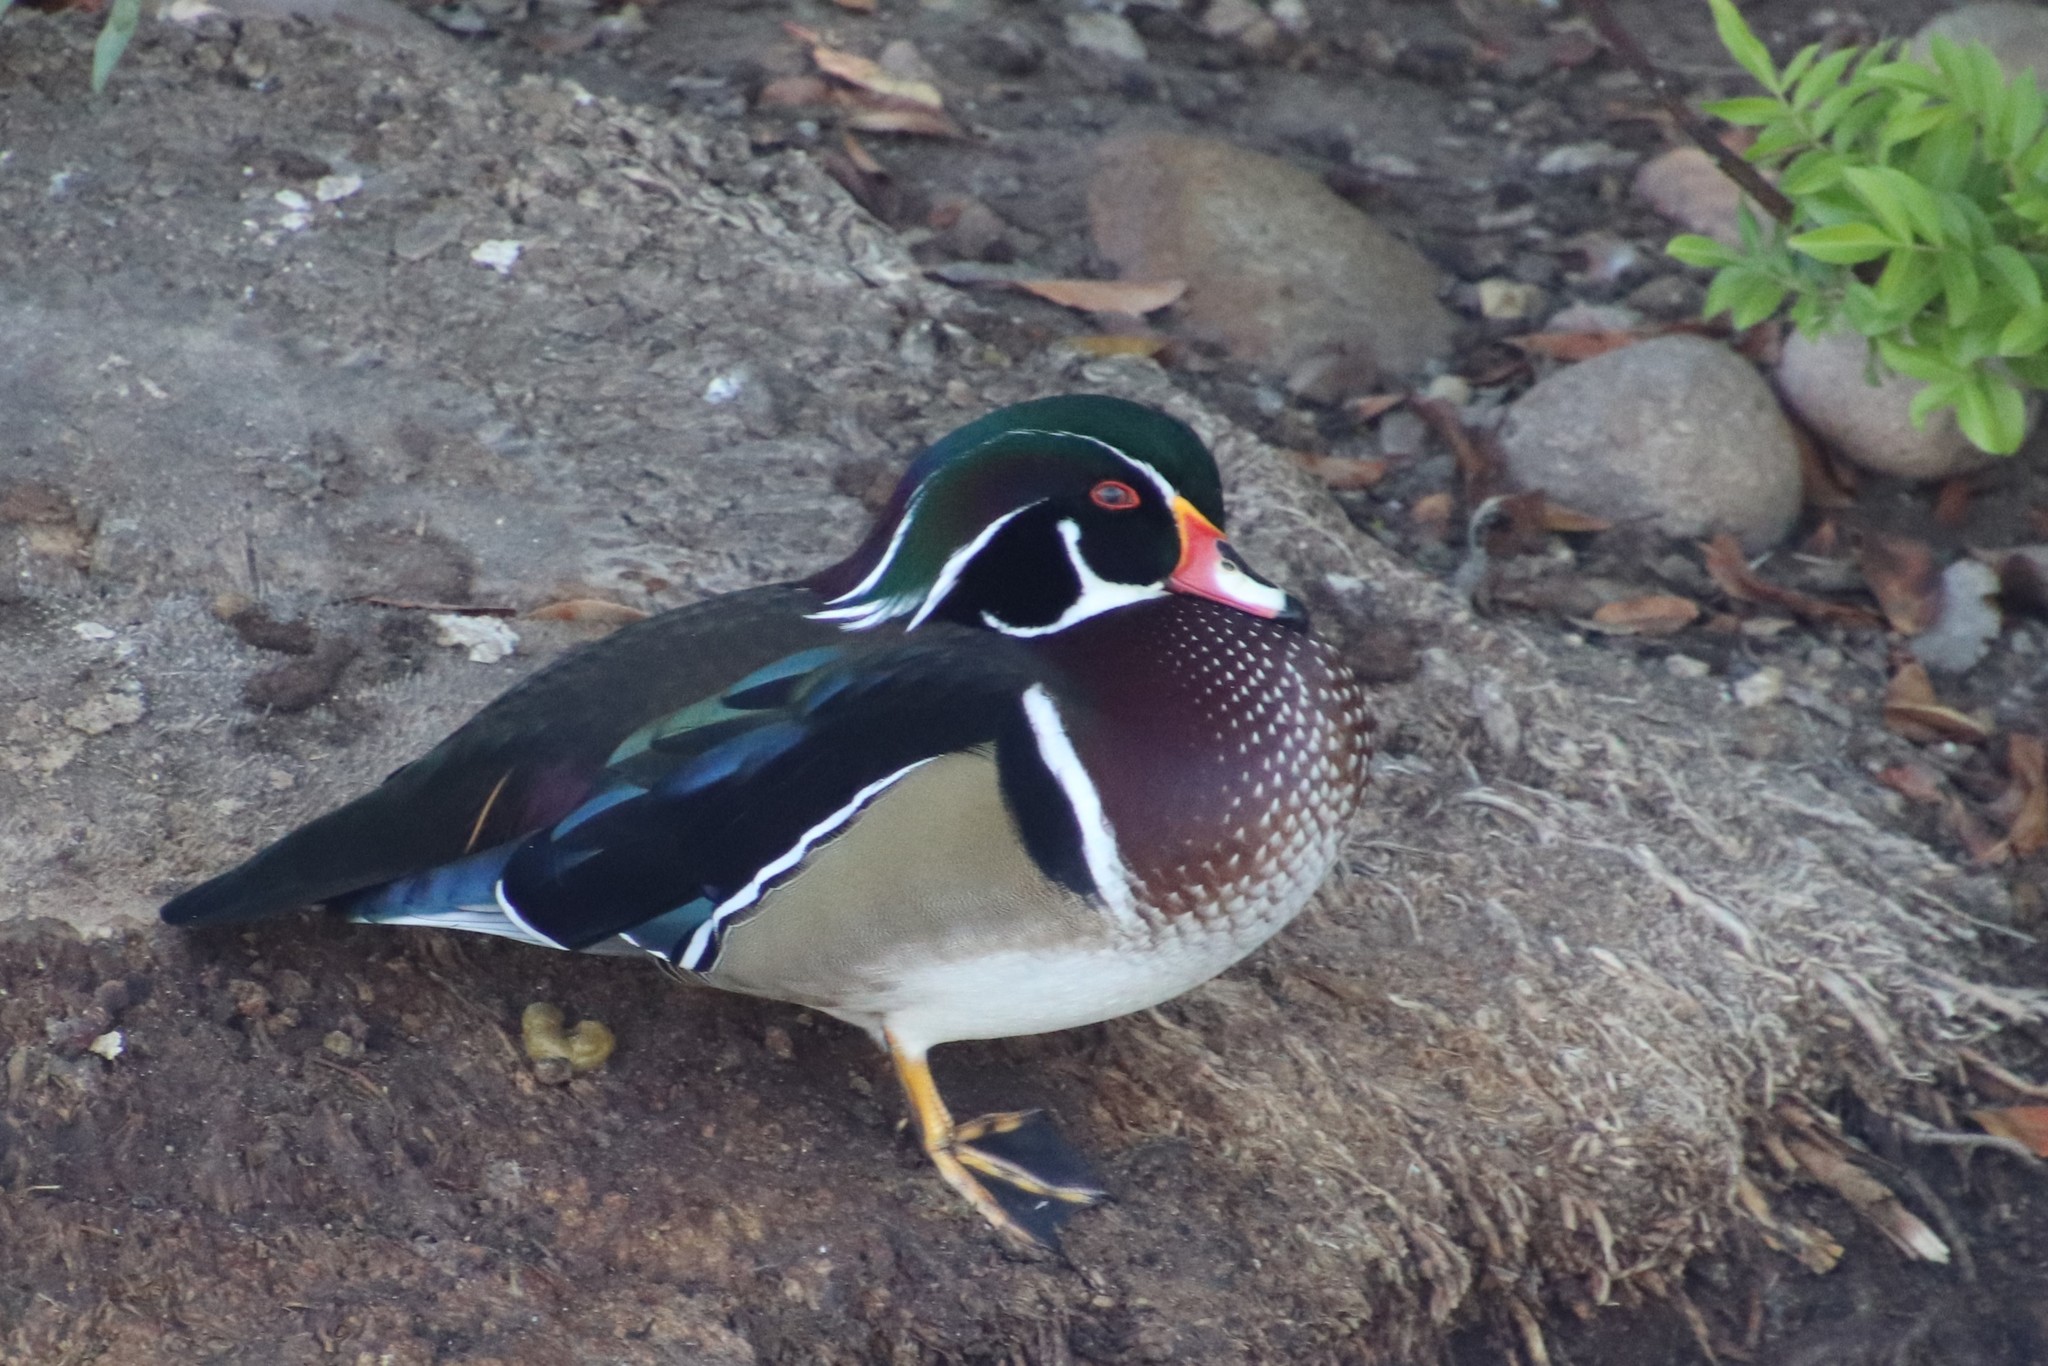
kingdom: Animalia
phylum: Chordata
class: Aves
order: Anseriformes
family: Anatidae
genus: Aix
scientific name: Aix sponsa
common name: Wood duck
